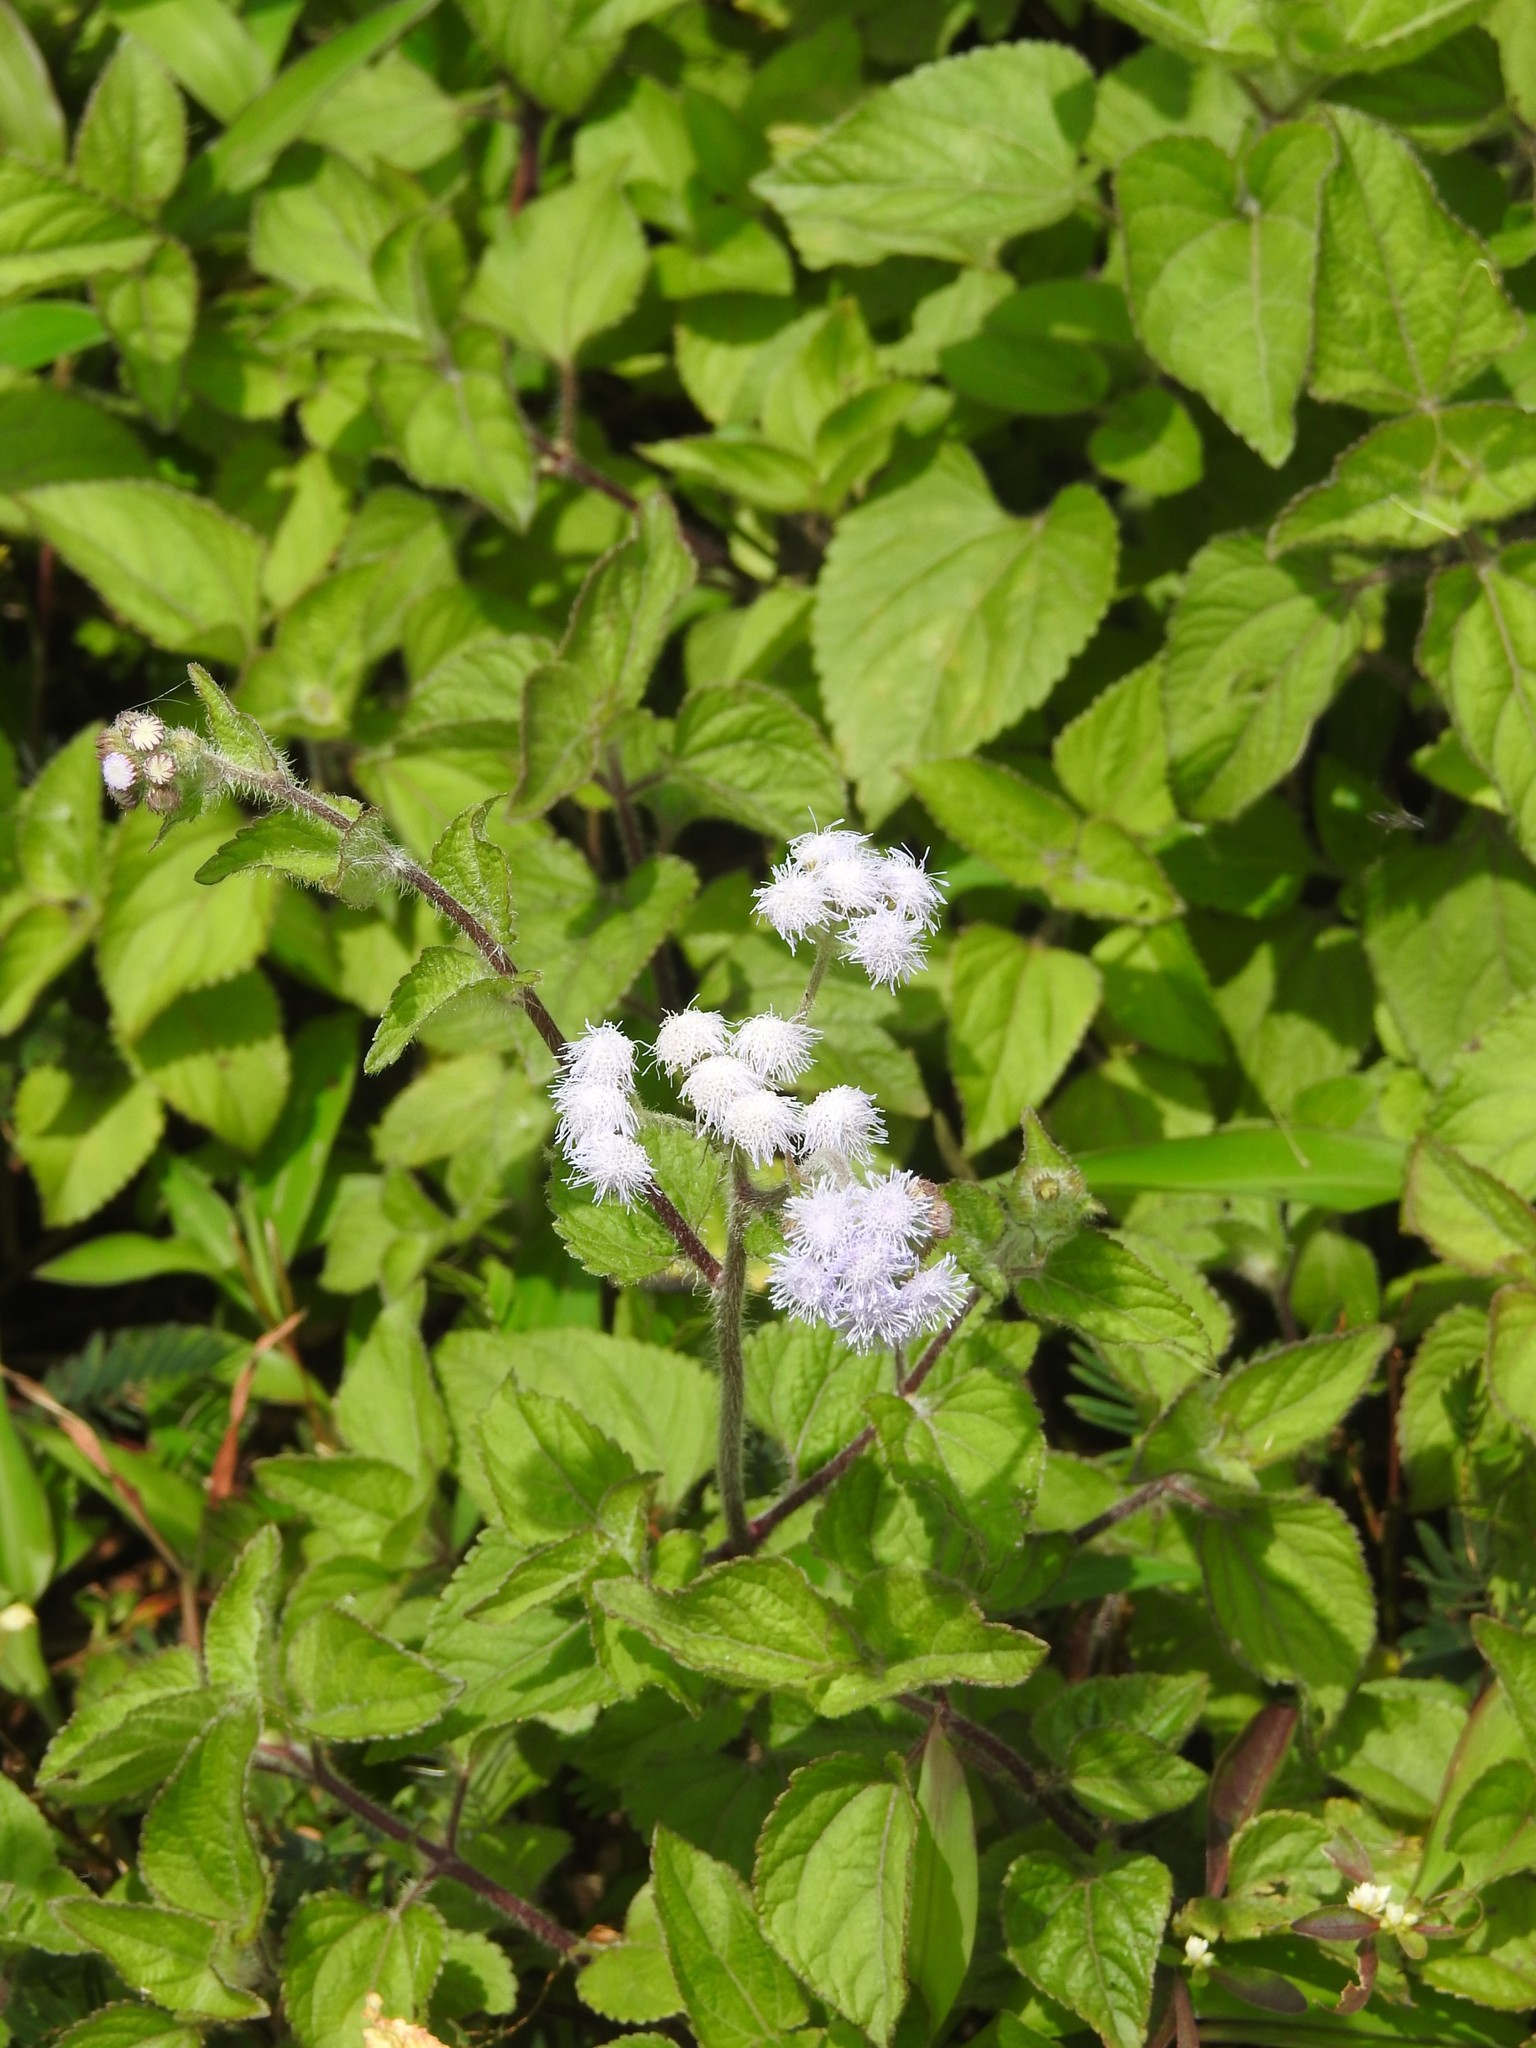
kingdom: Plantae
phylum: Tracheophyta
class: Magnoliopsida
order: Asterales
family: Asteraceae
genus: Ageratum
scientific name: Ageratum conyzoides
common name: Tropical whiteweed
